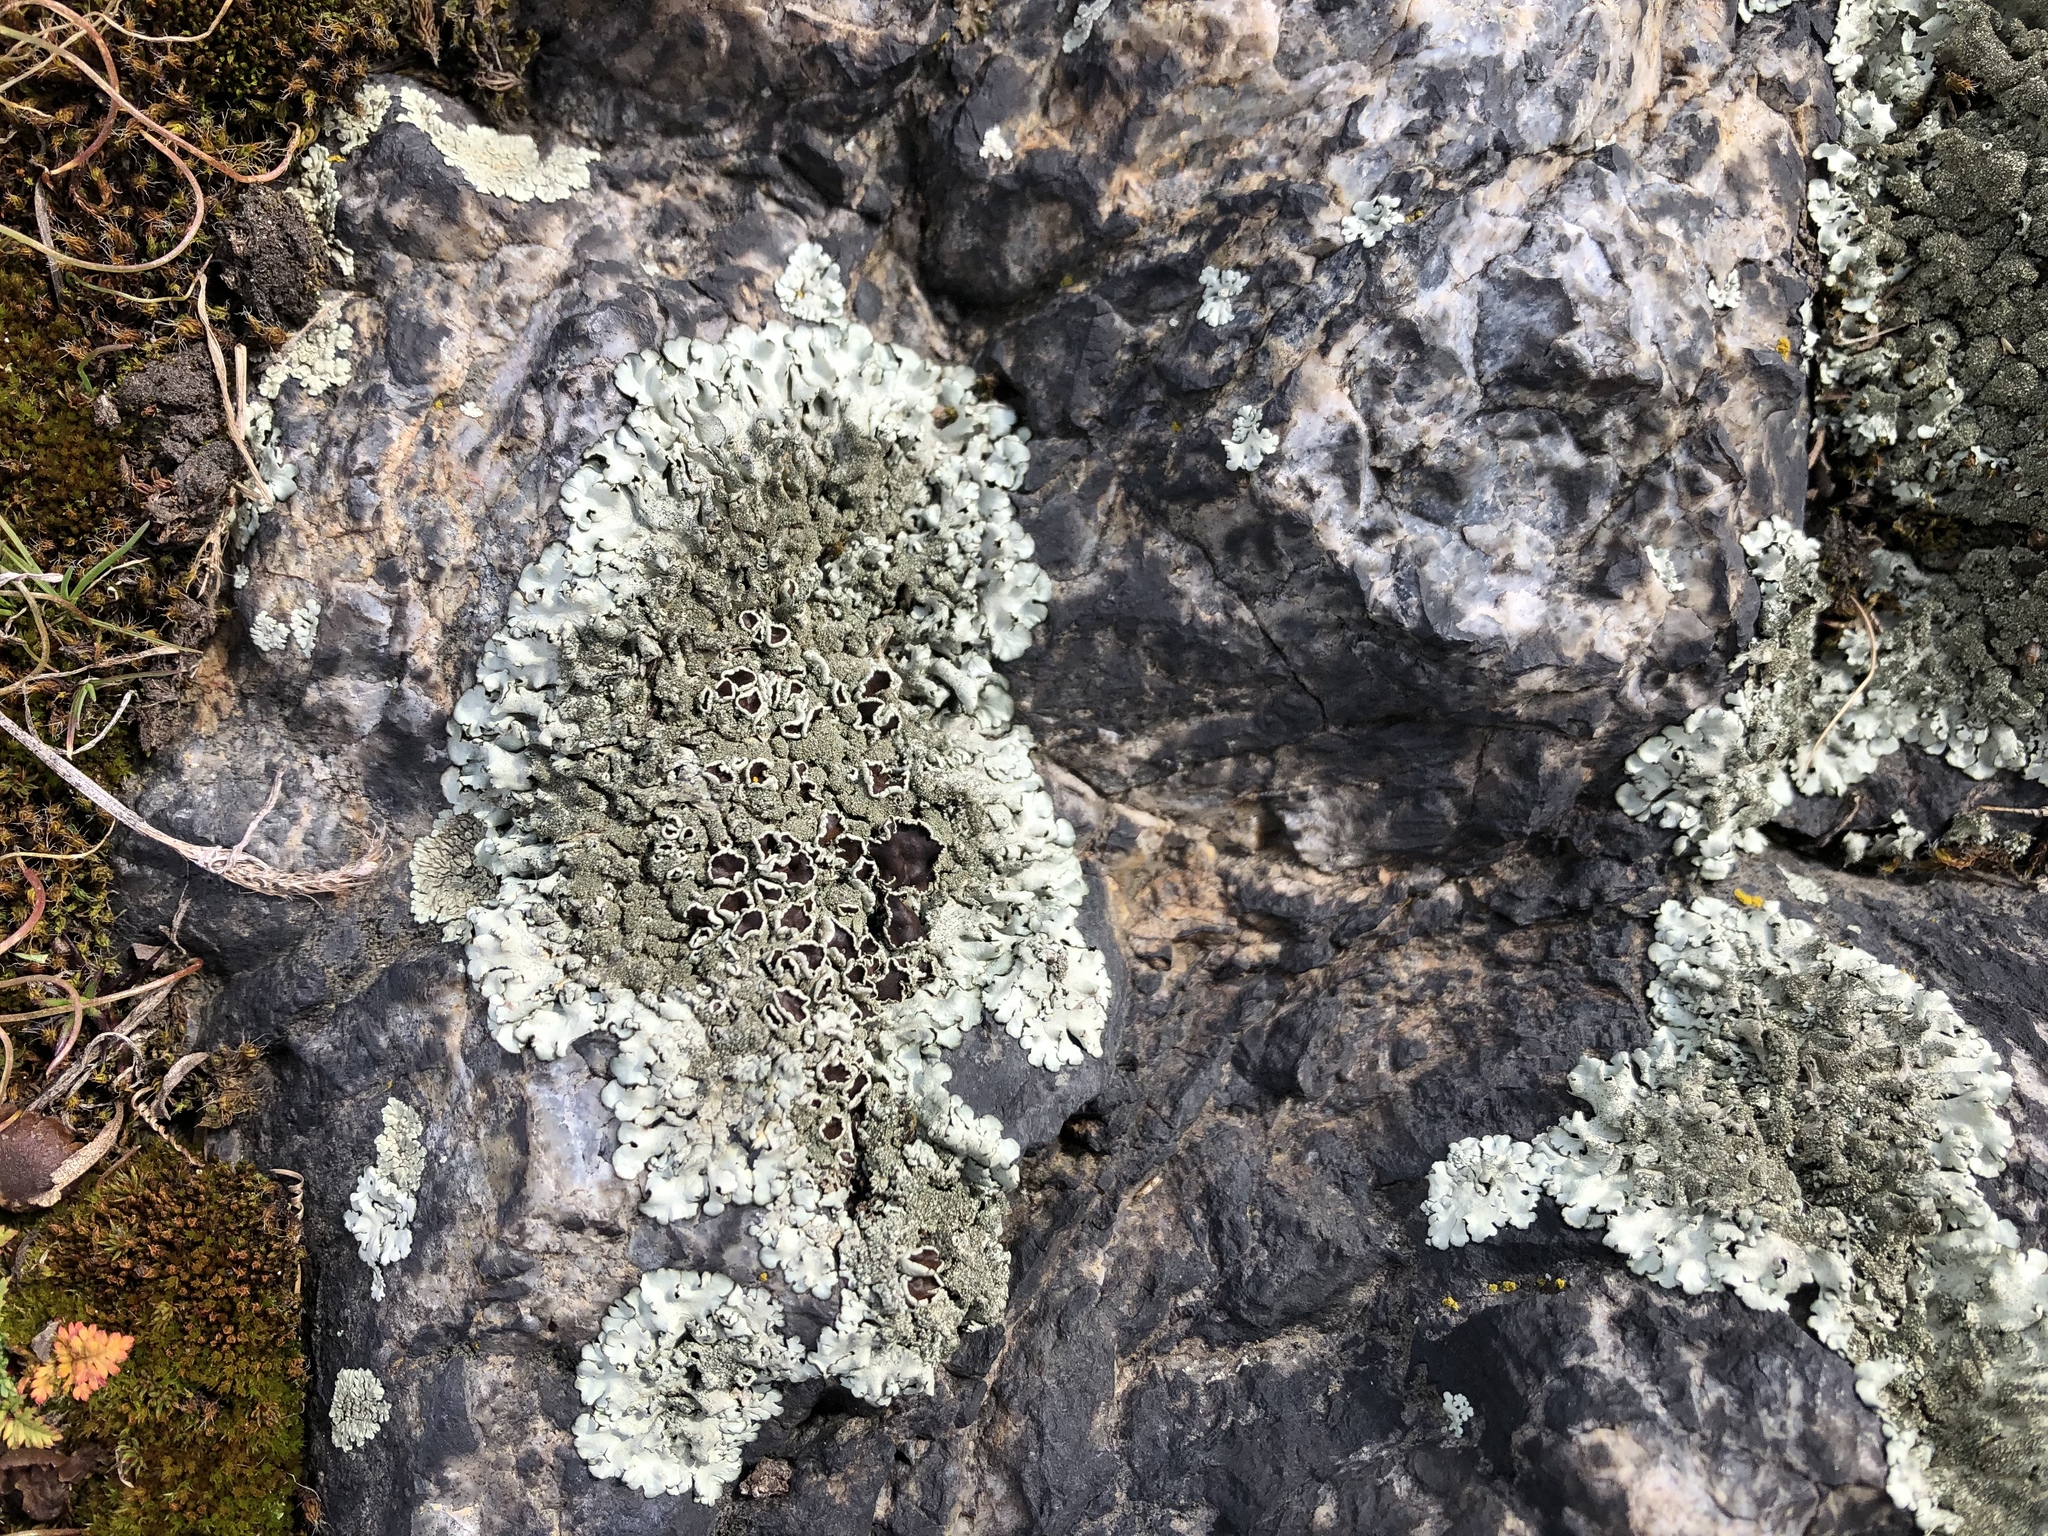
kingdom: Fungi
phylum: Ascomycota
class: Lecanoromycetes
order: Lecanorales
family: Parmeliaceae
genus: Xanthoparmelia
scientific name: Xanthoparmelia conspersa
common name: Peppered rock shield
